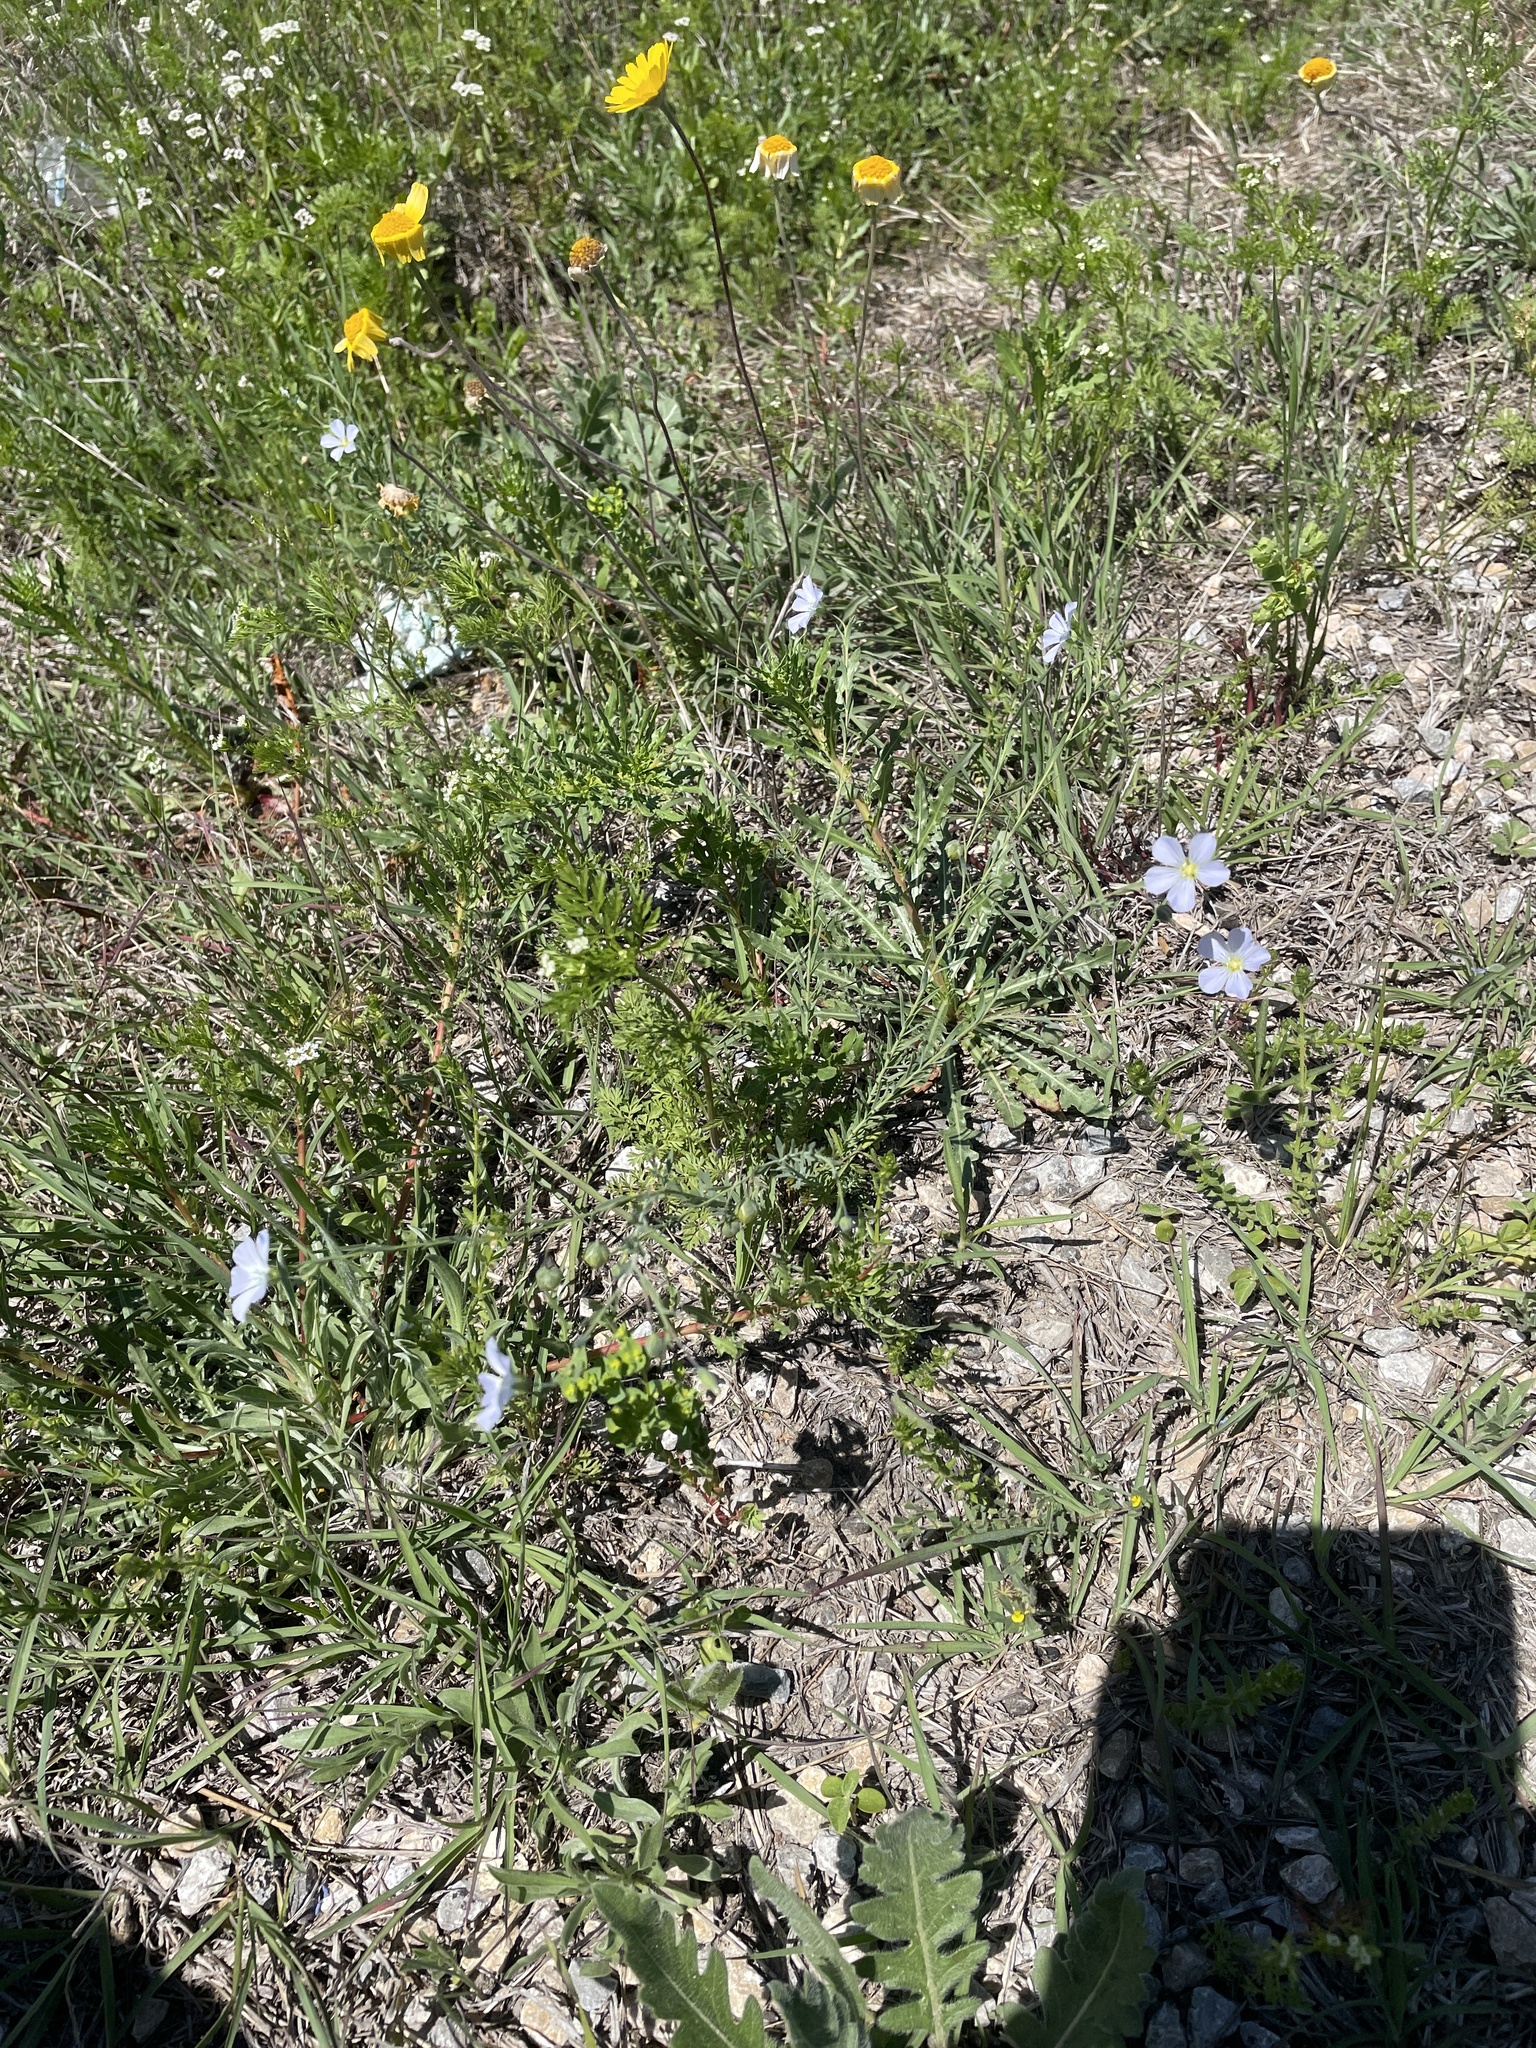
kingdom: Plantae
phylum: Tracheophyta
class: Magnoliopsida
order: Malpighiales
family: Linaceae
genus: Linum
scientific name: Linum pratense
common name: Norton's flax
